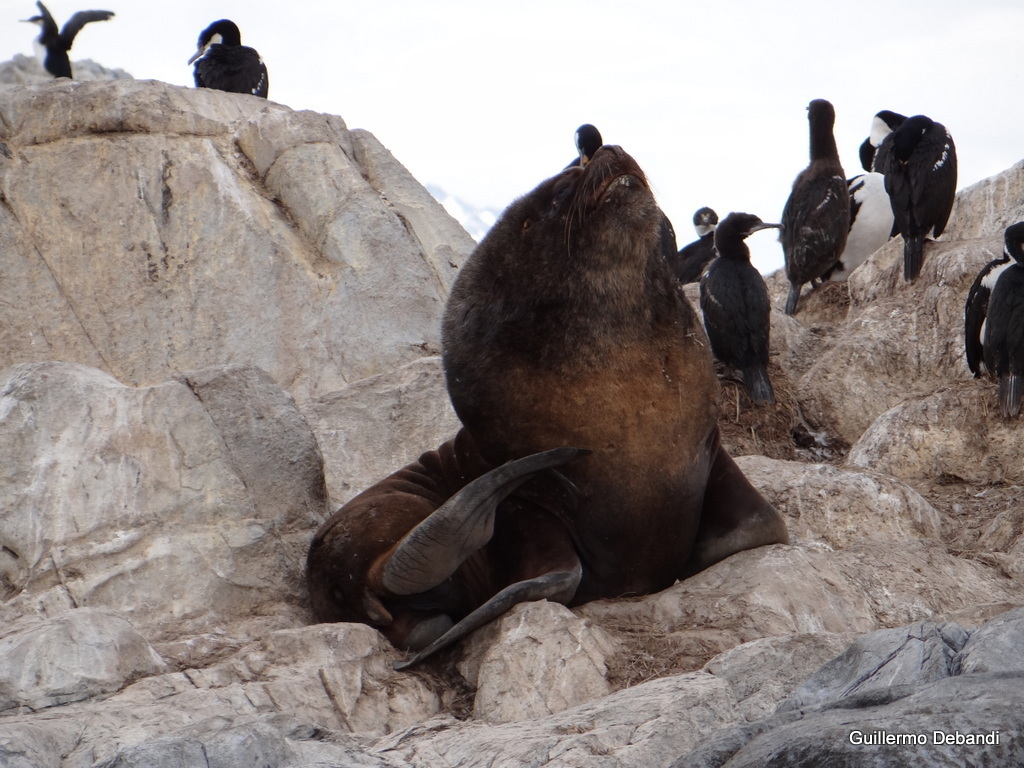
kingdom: Animalia
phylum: Chordata
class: Mammalia
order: Carnivora
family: Otariidae
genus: Otaria
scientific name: Otaria byronia
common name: South american sea lion
